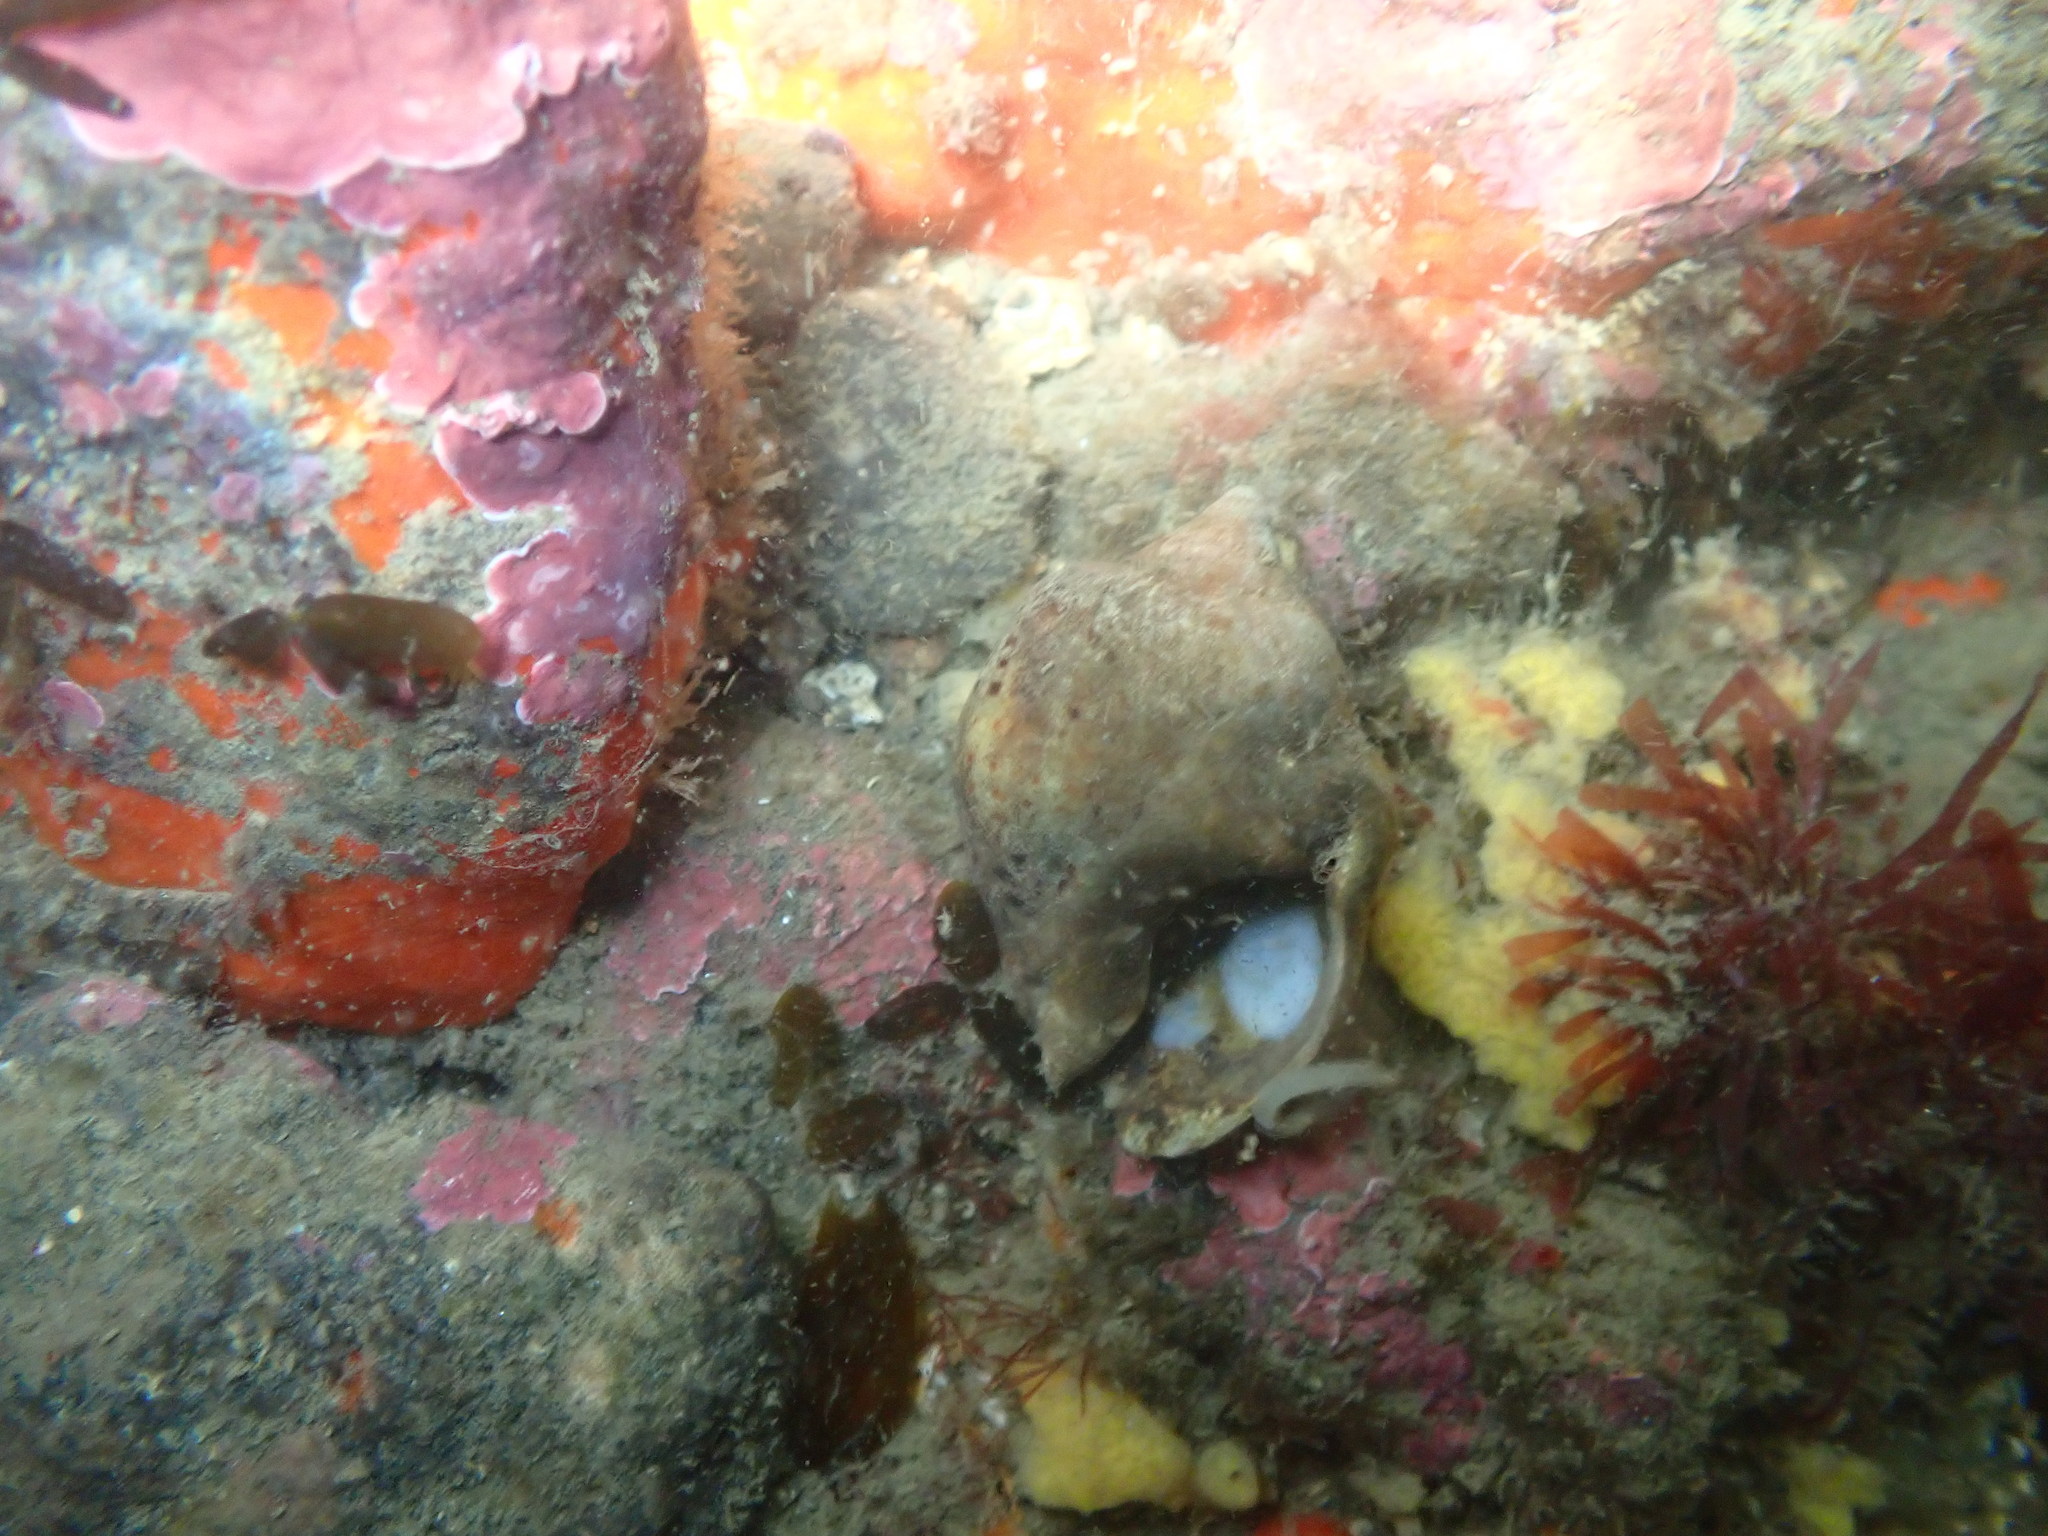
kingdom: Animalia
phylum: Mollusca
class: Gastropoda
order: Littorinimorpha
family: Calyptraeidae
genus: Maoricrypta
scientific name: Maoricrypta sodalis
